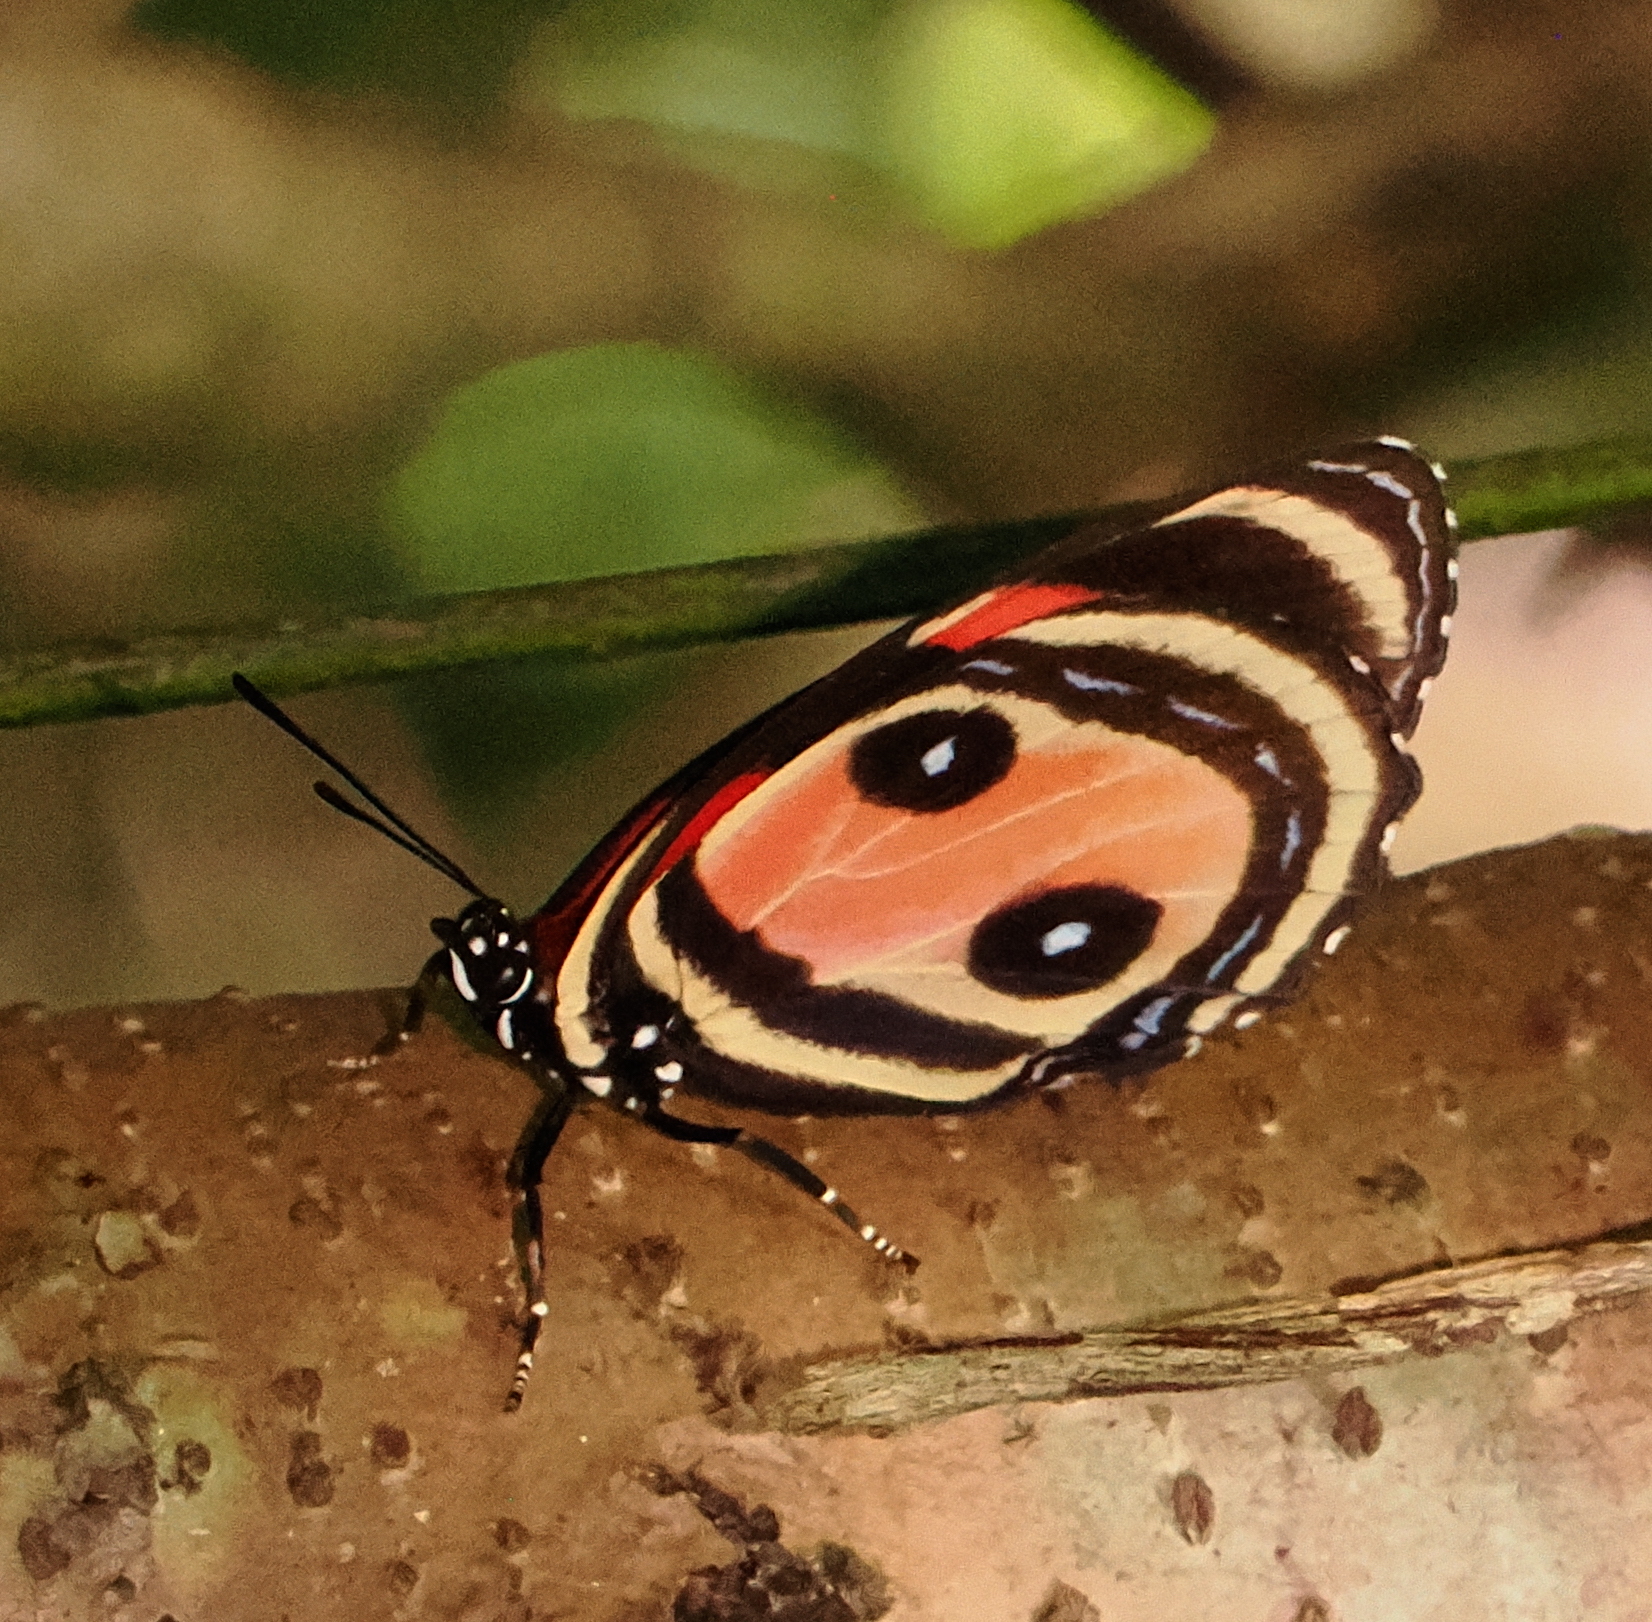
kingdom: Animalia
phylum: Arthropoda
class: Insecta
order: Lepidoptera
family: Nymphalidae
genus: Catagramma
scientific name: Catagramma Callicore pitheas
